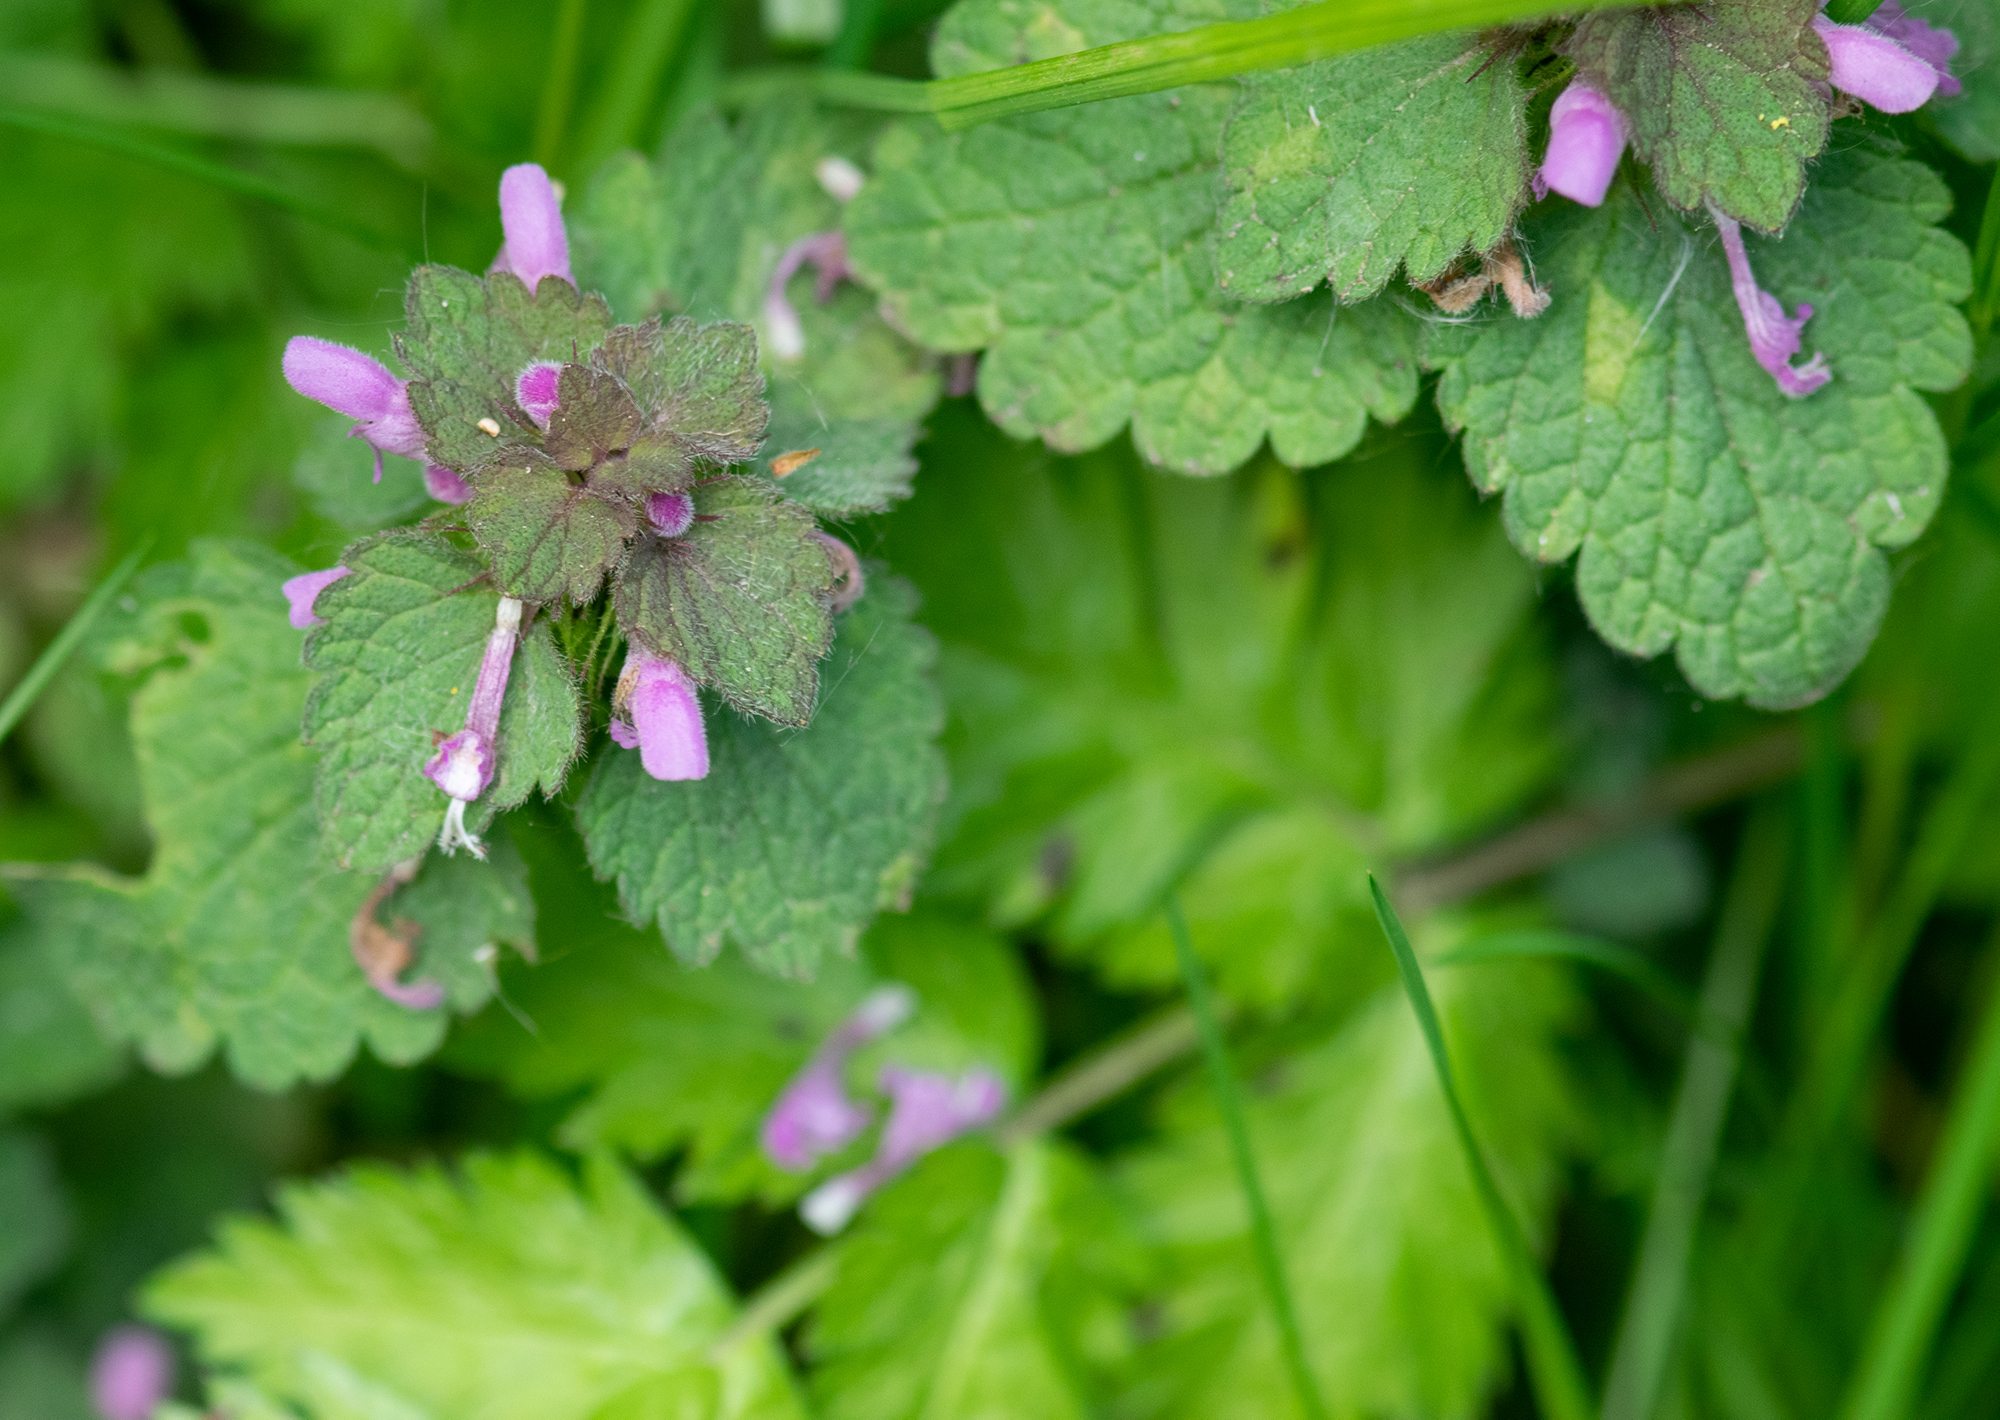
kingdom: Plantae
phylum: Tracheophyta
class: Magnoliopsida
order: Lamiales
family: Lamiaceae
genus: Lamium
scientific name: Lamium purpureum
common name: Red dead-nettle
